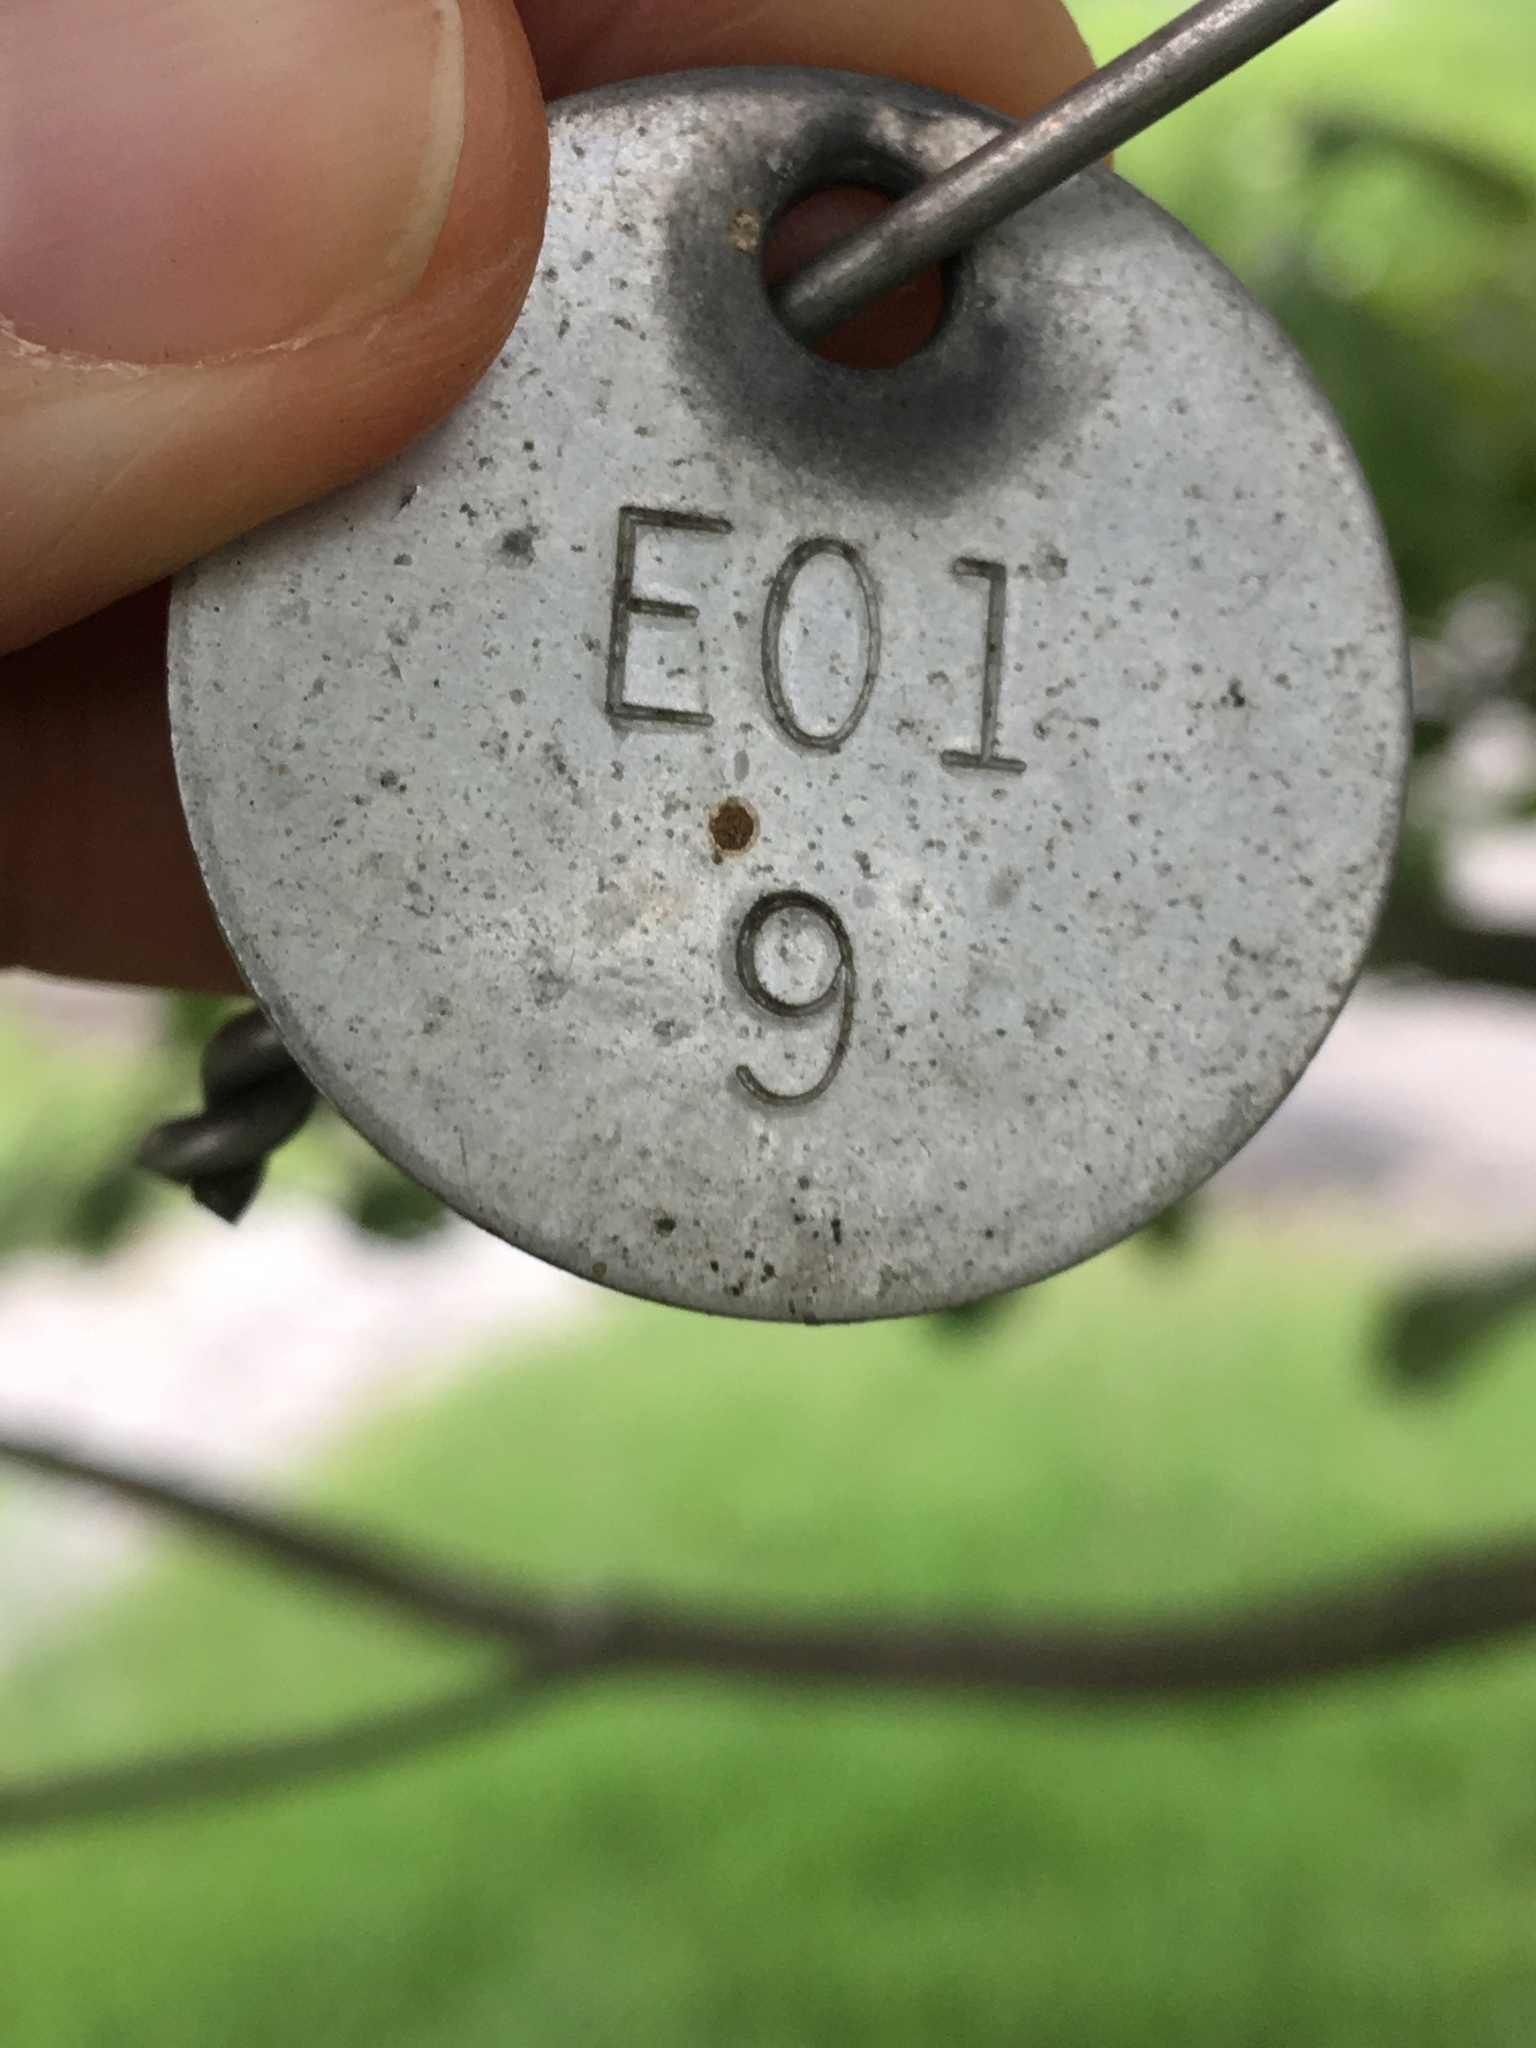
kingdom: Plantae
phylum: Tracheophyta
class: Magnoliopsida
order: Cornales
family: Cornaceae
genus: Cornus
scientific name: Cornus florida
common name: Flowering dogwood
